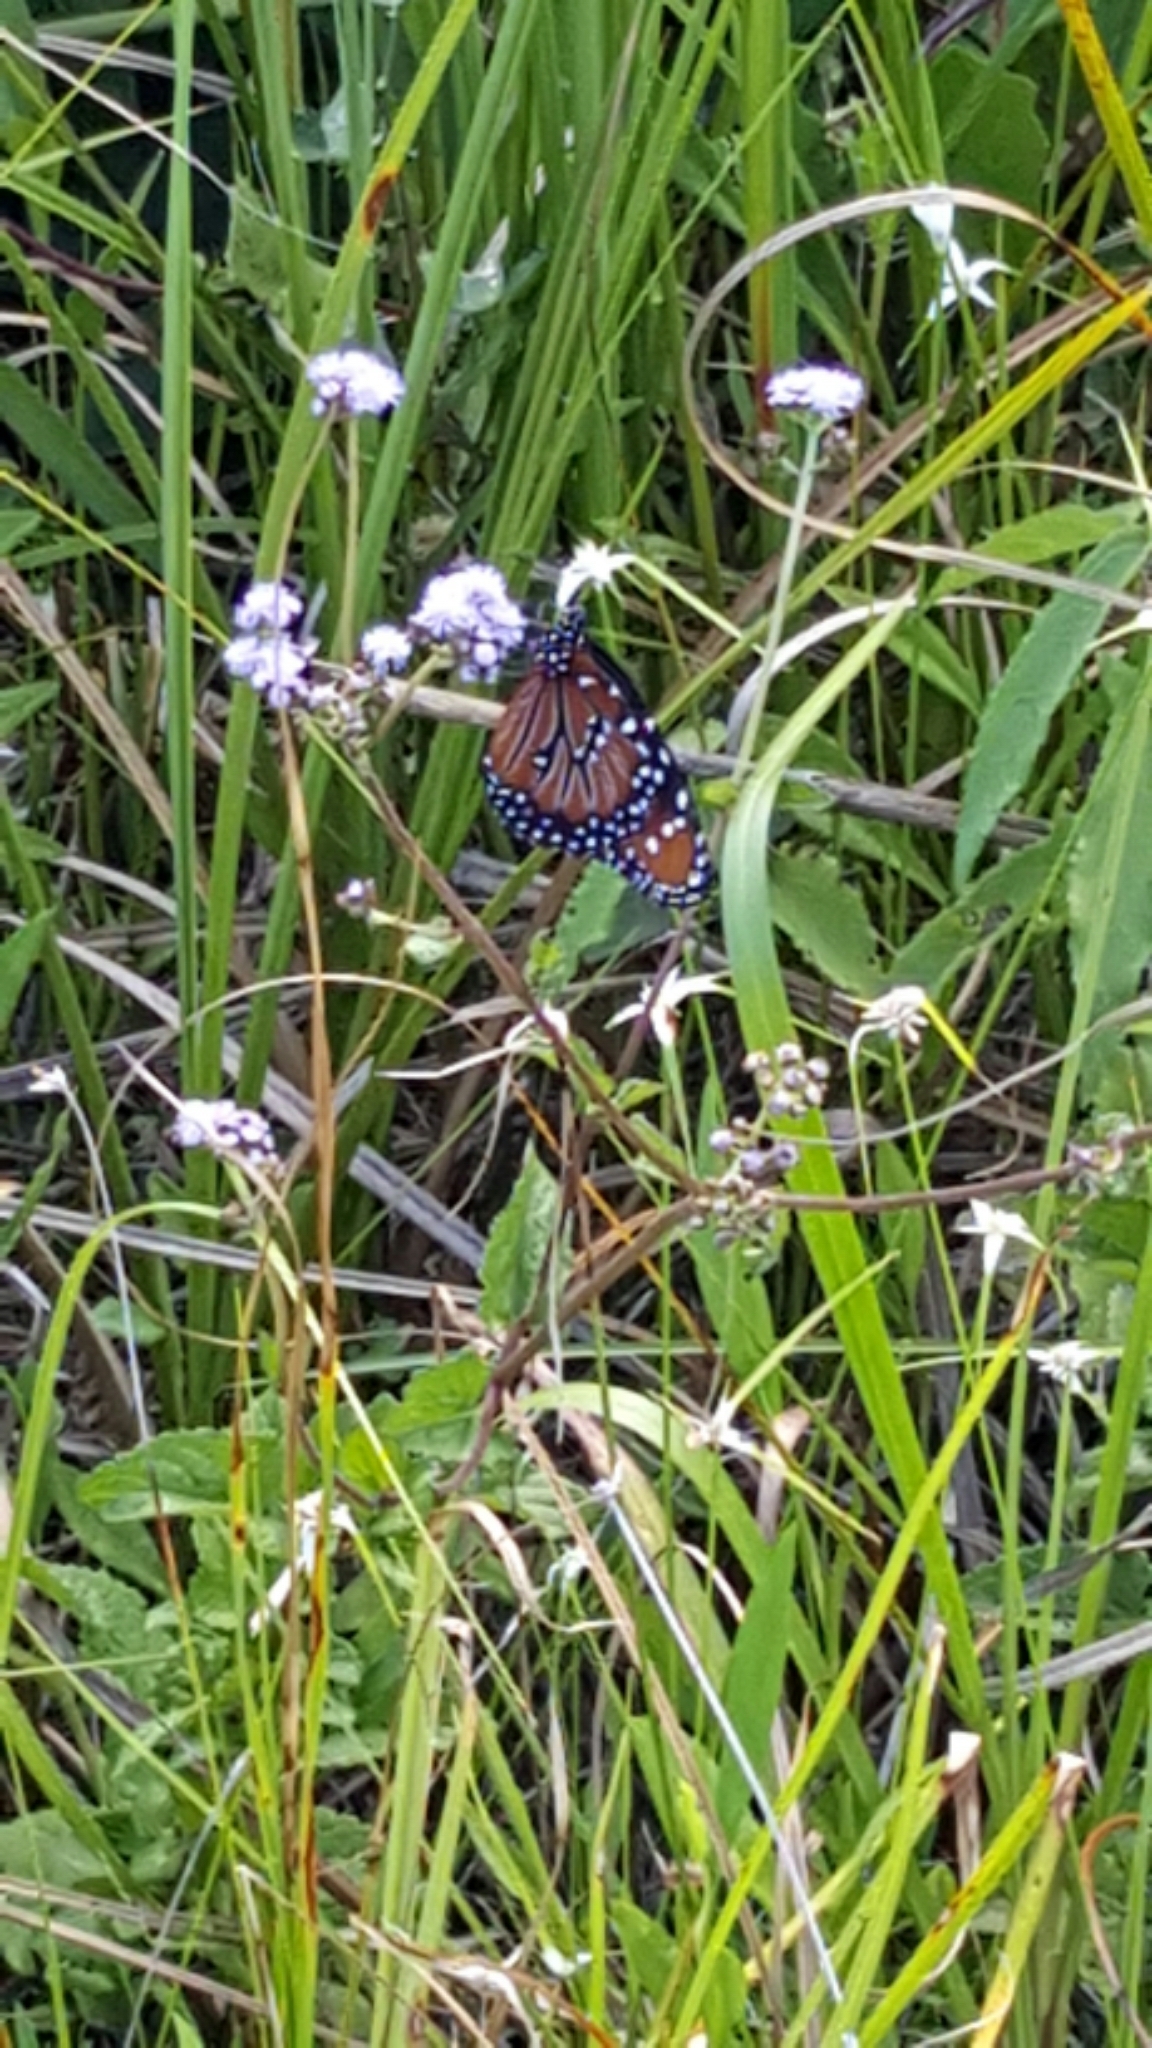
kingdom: Animalia
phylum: Arthropoda
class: Insecta
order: Lepidoptera
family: Nymphalidae
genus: Danaus
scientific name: Danaus gilippus
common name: Queen
